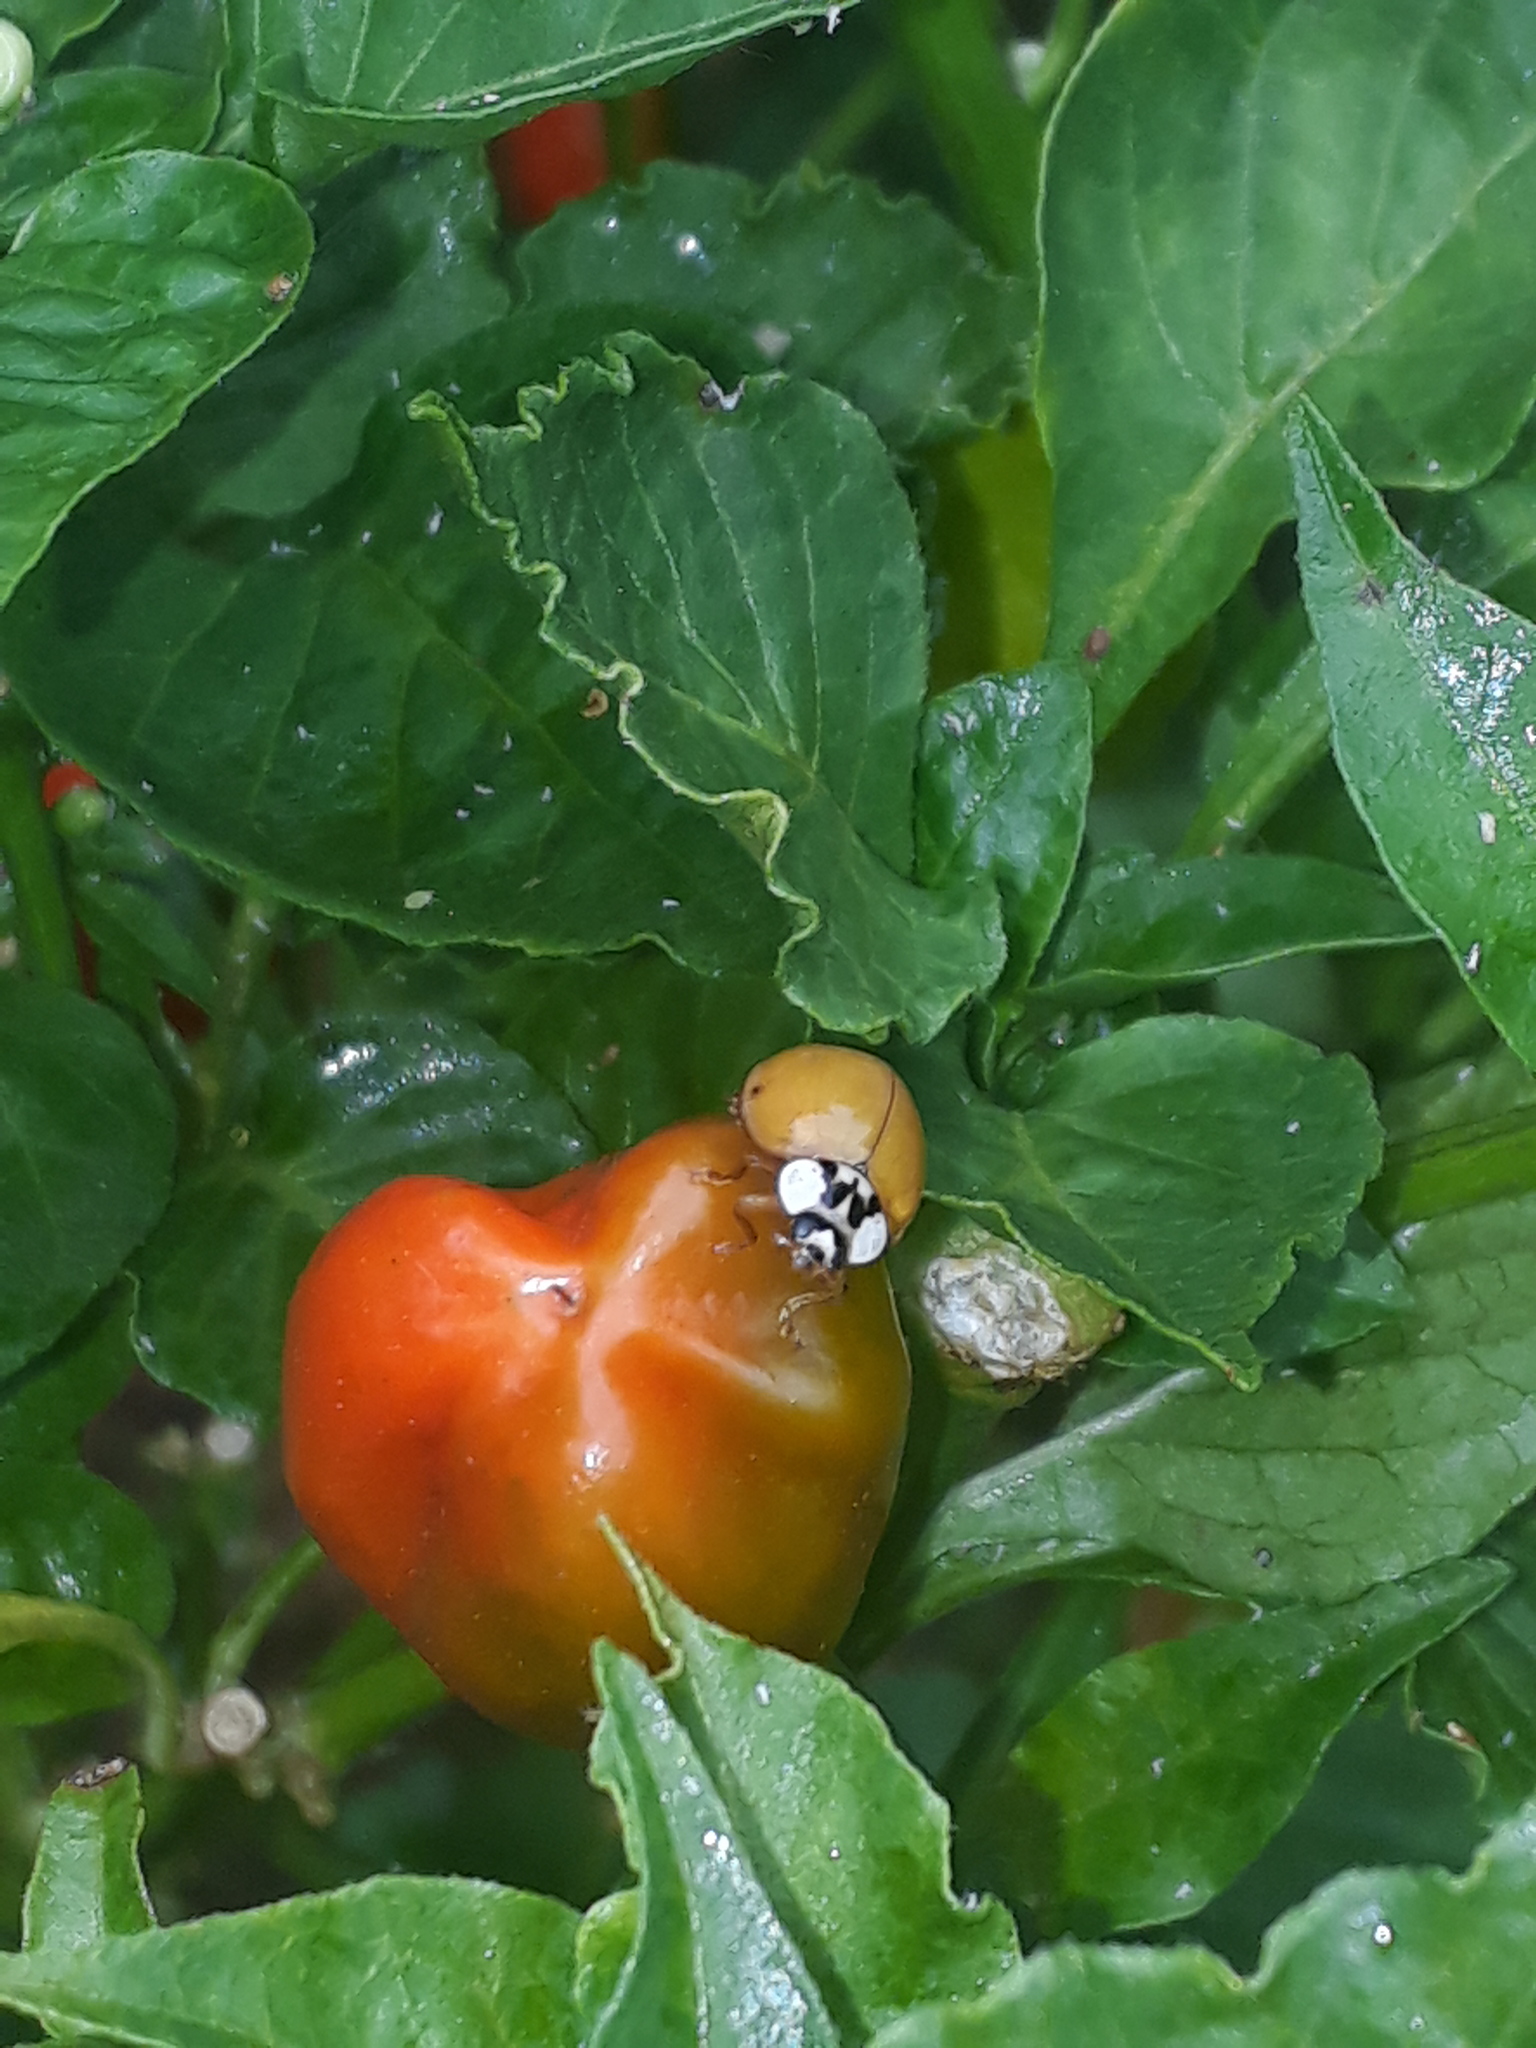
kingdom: Animalia
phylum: Arthropoda
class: Insecta
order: Coleoptera
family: Coccinellidae
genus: Harmonia
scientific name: Harmonia axyridis
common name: Harlequin ladybird
